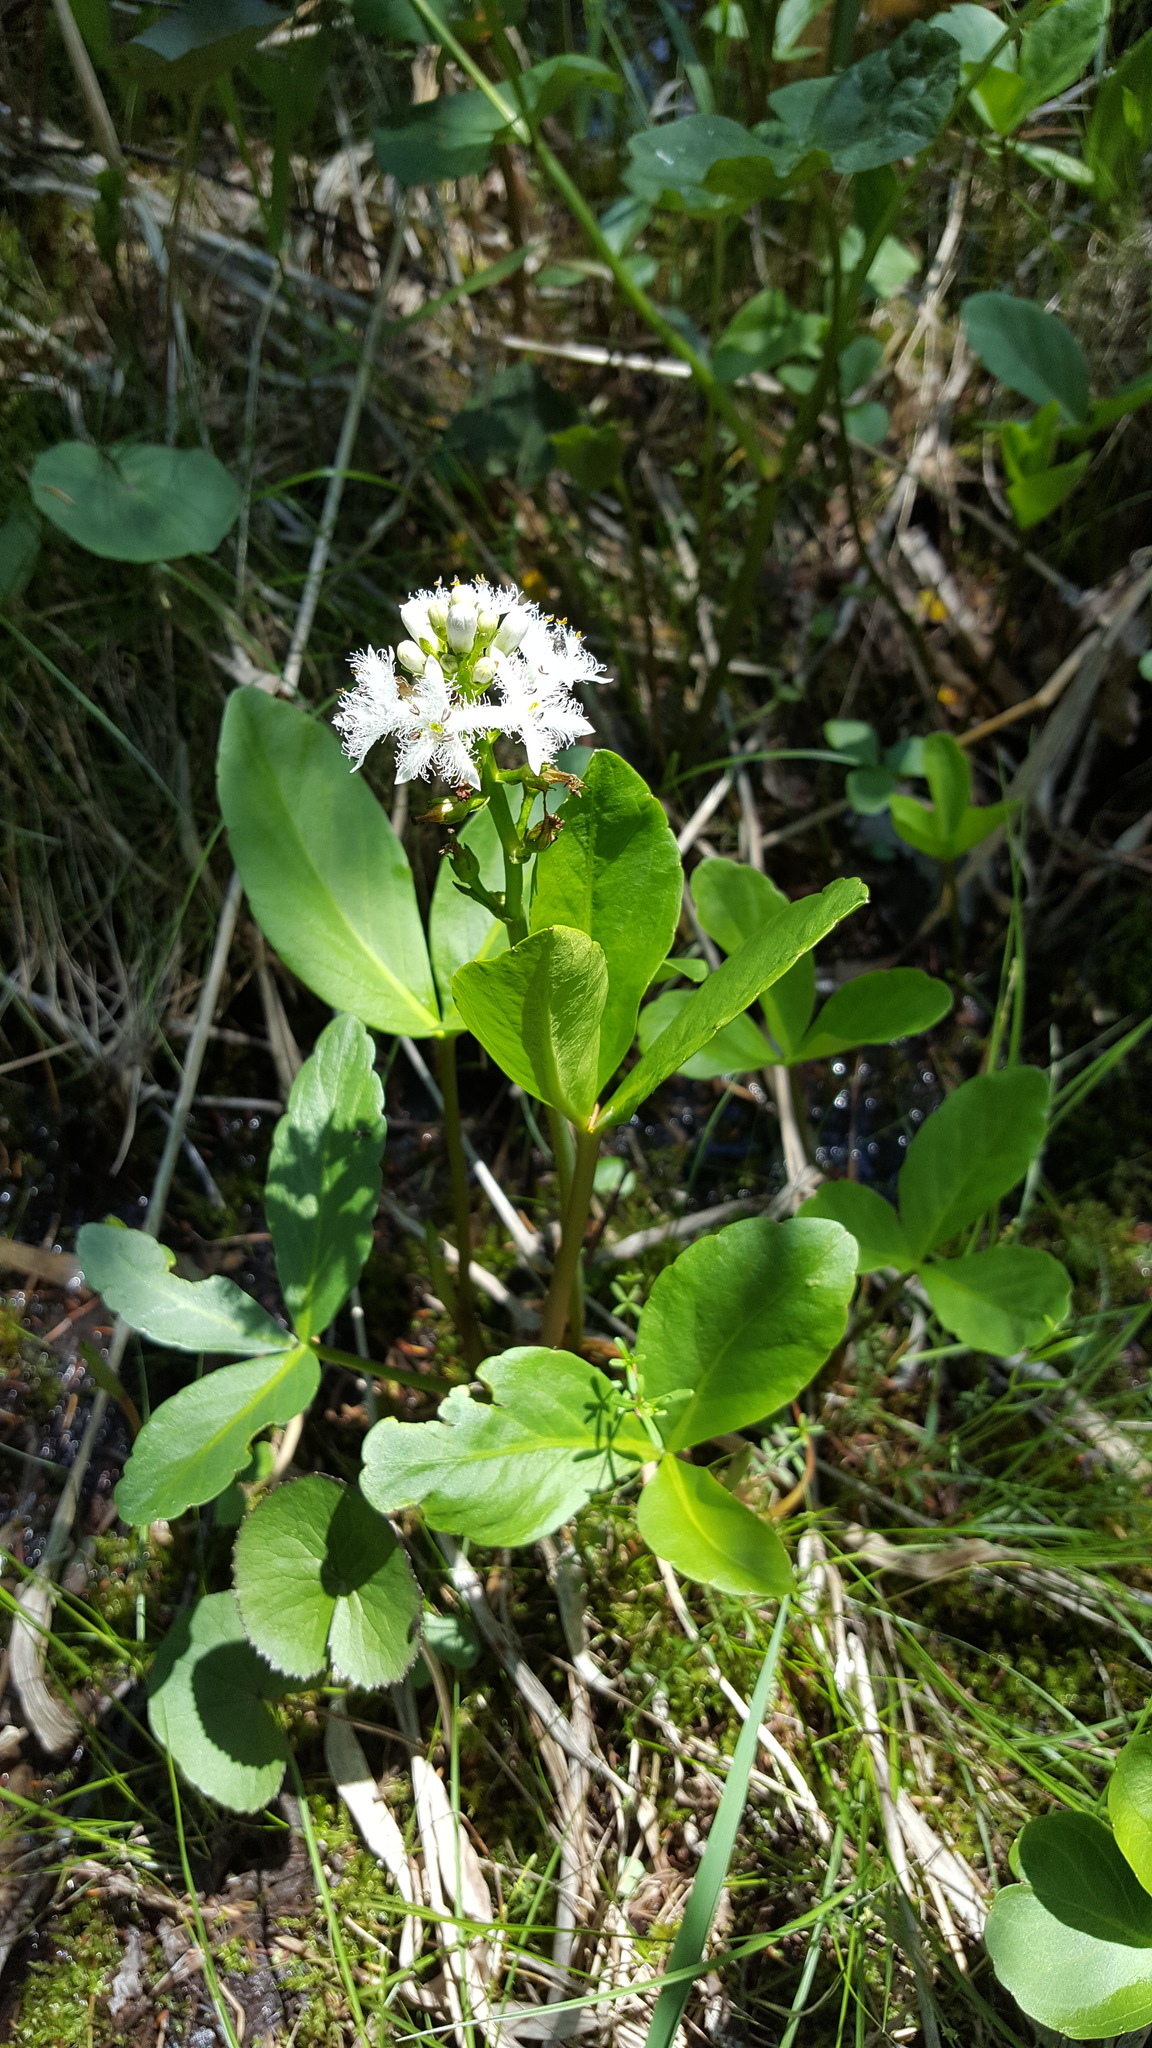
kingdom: Plantae
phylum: Tracheophyta
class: Magnoliopsida
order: Asterales
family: Menyanthaceae
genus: Menyanthes
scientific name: Menyanthes trifoliata
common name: Bogbean
